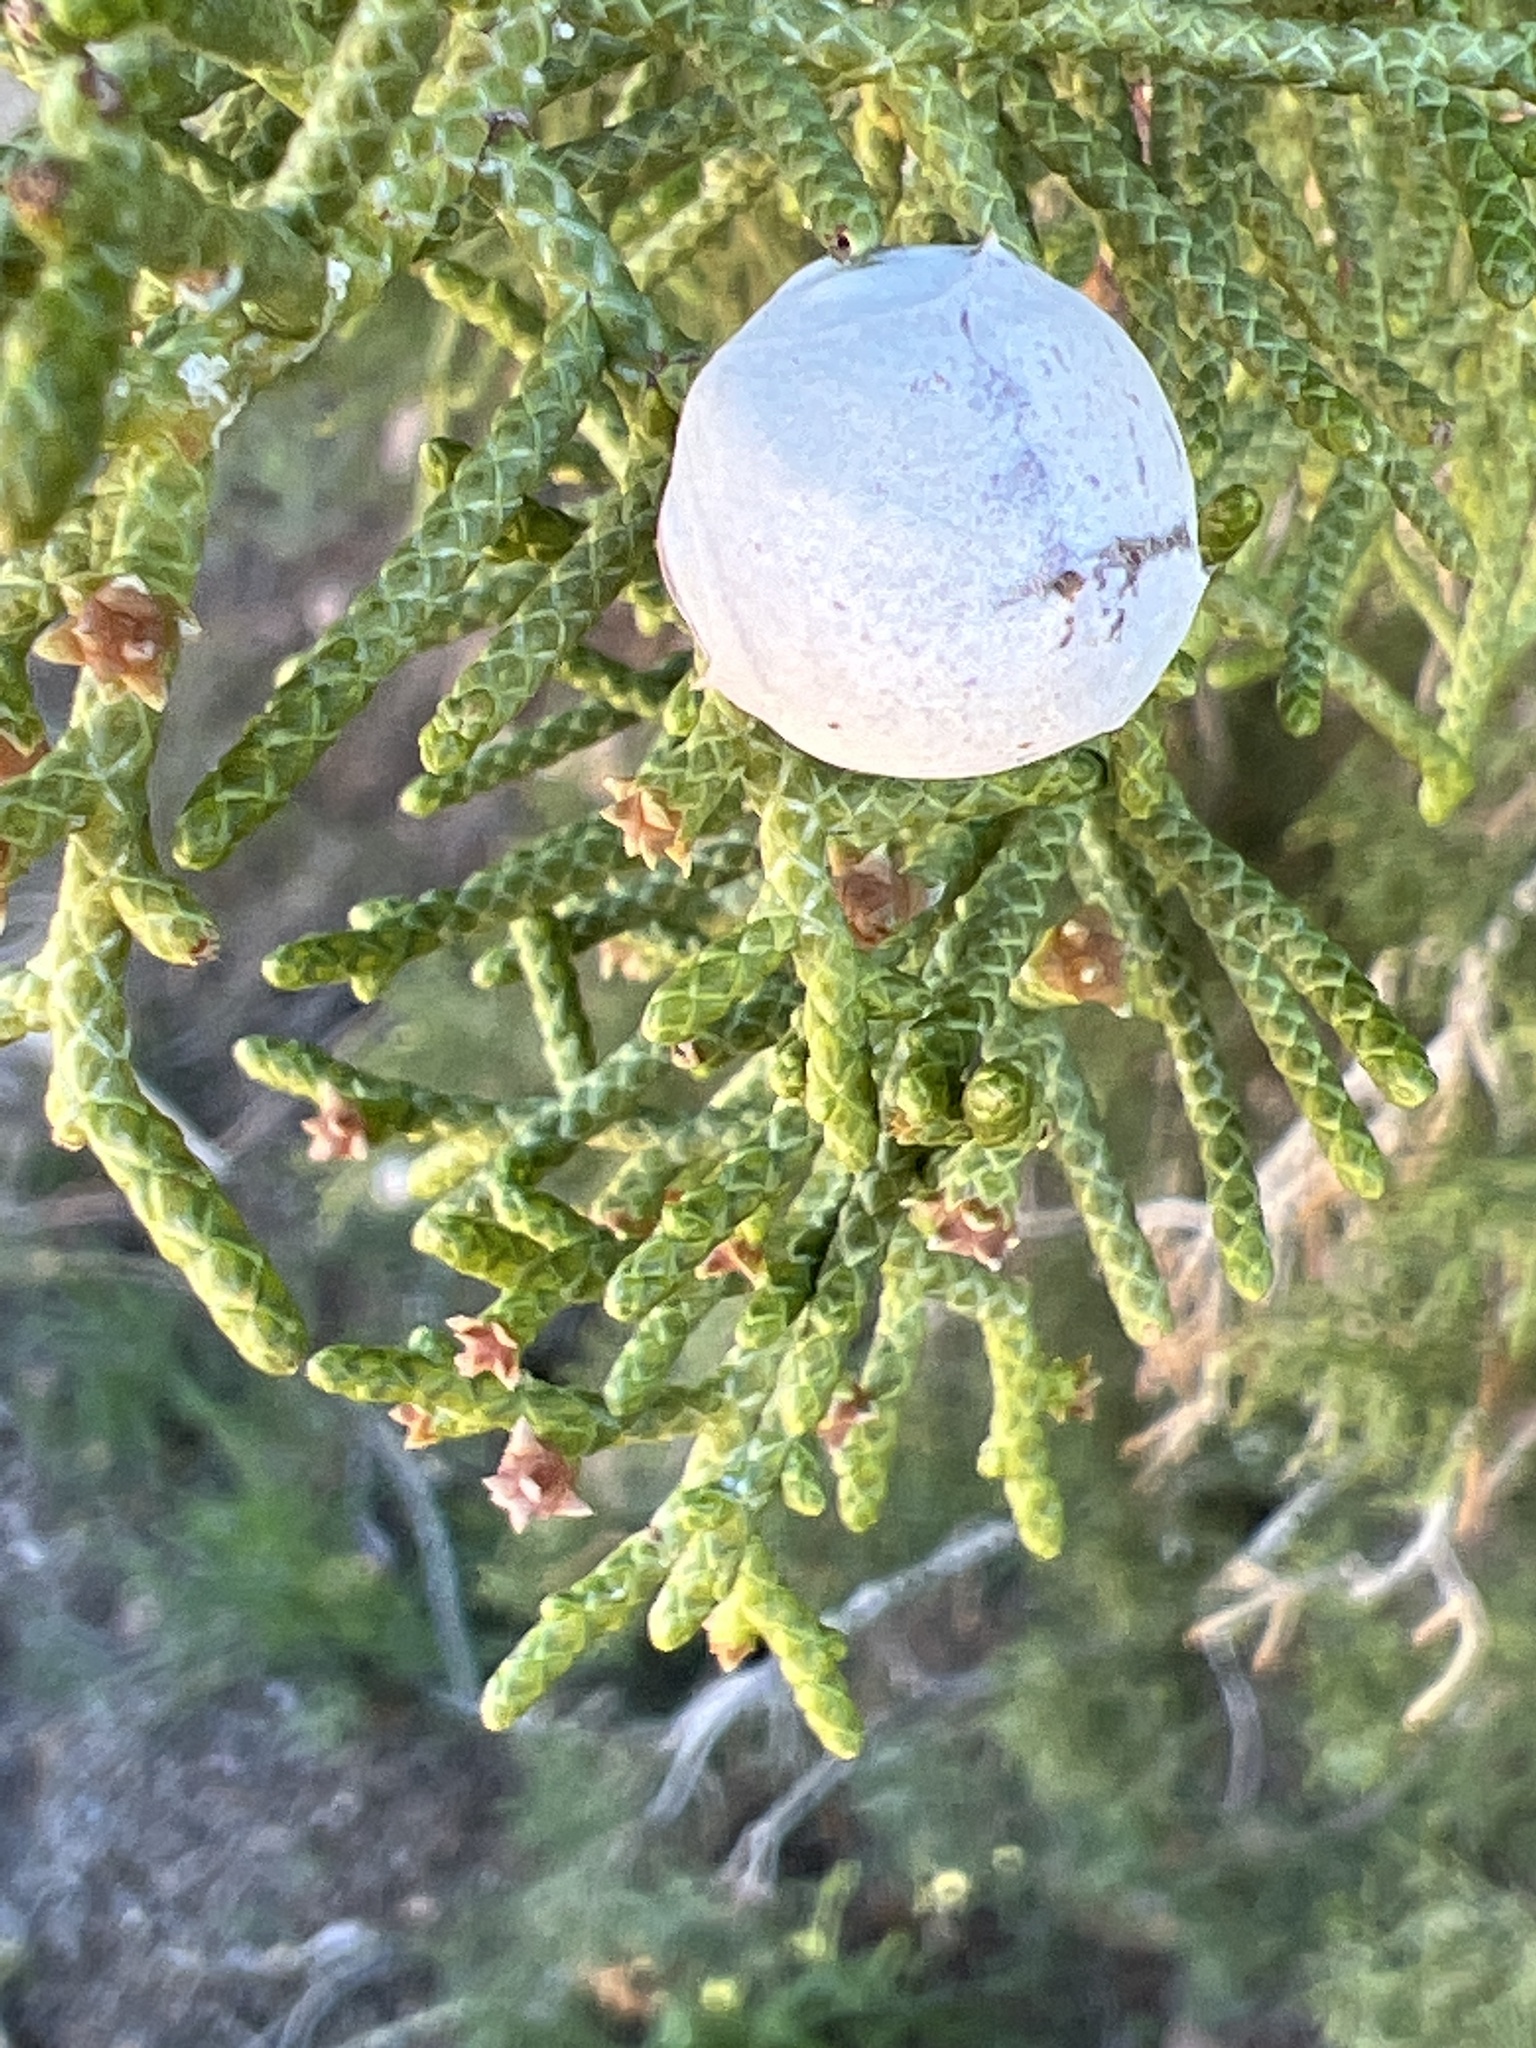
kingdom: Plantae
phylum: Tracheophyta
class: Pinopsida
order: Pinales
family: Cupressaceae
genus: Juniperus
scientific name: Juniperus californica
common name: California juniper
